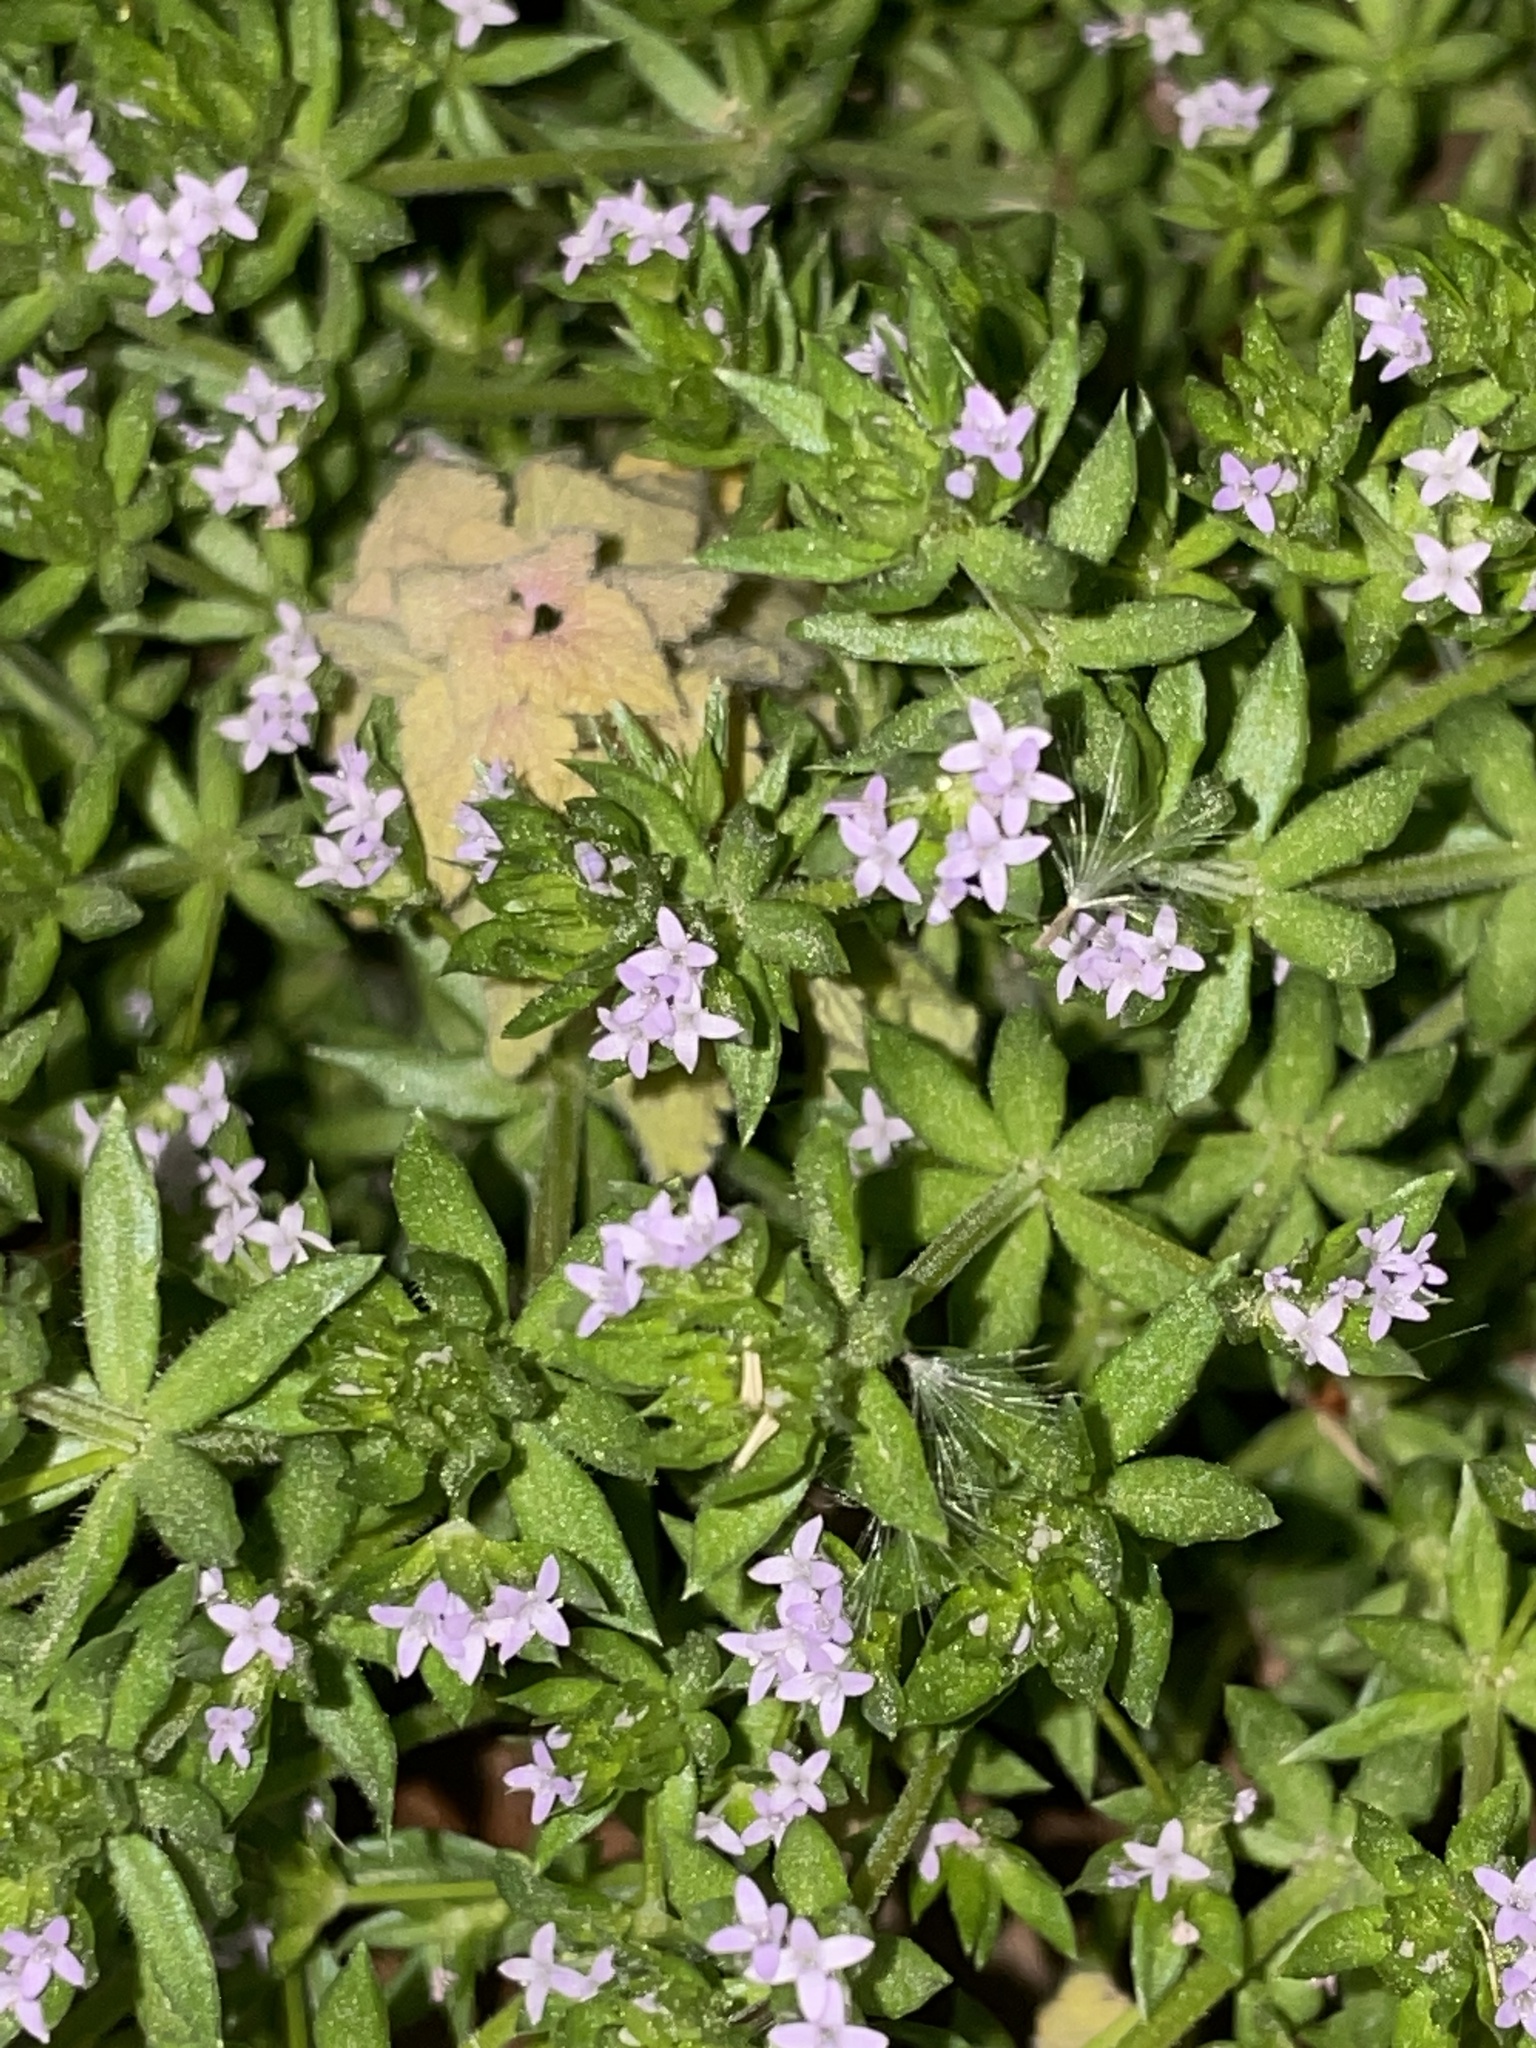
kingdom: Plantae
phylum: Tracheophyta
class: Magnoliopsida
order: Gentianales
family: Rubiaceae
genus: Sherardia
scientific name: Sherardia arvensis
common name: Field madder
